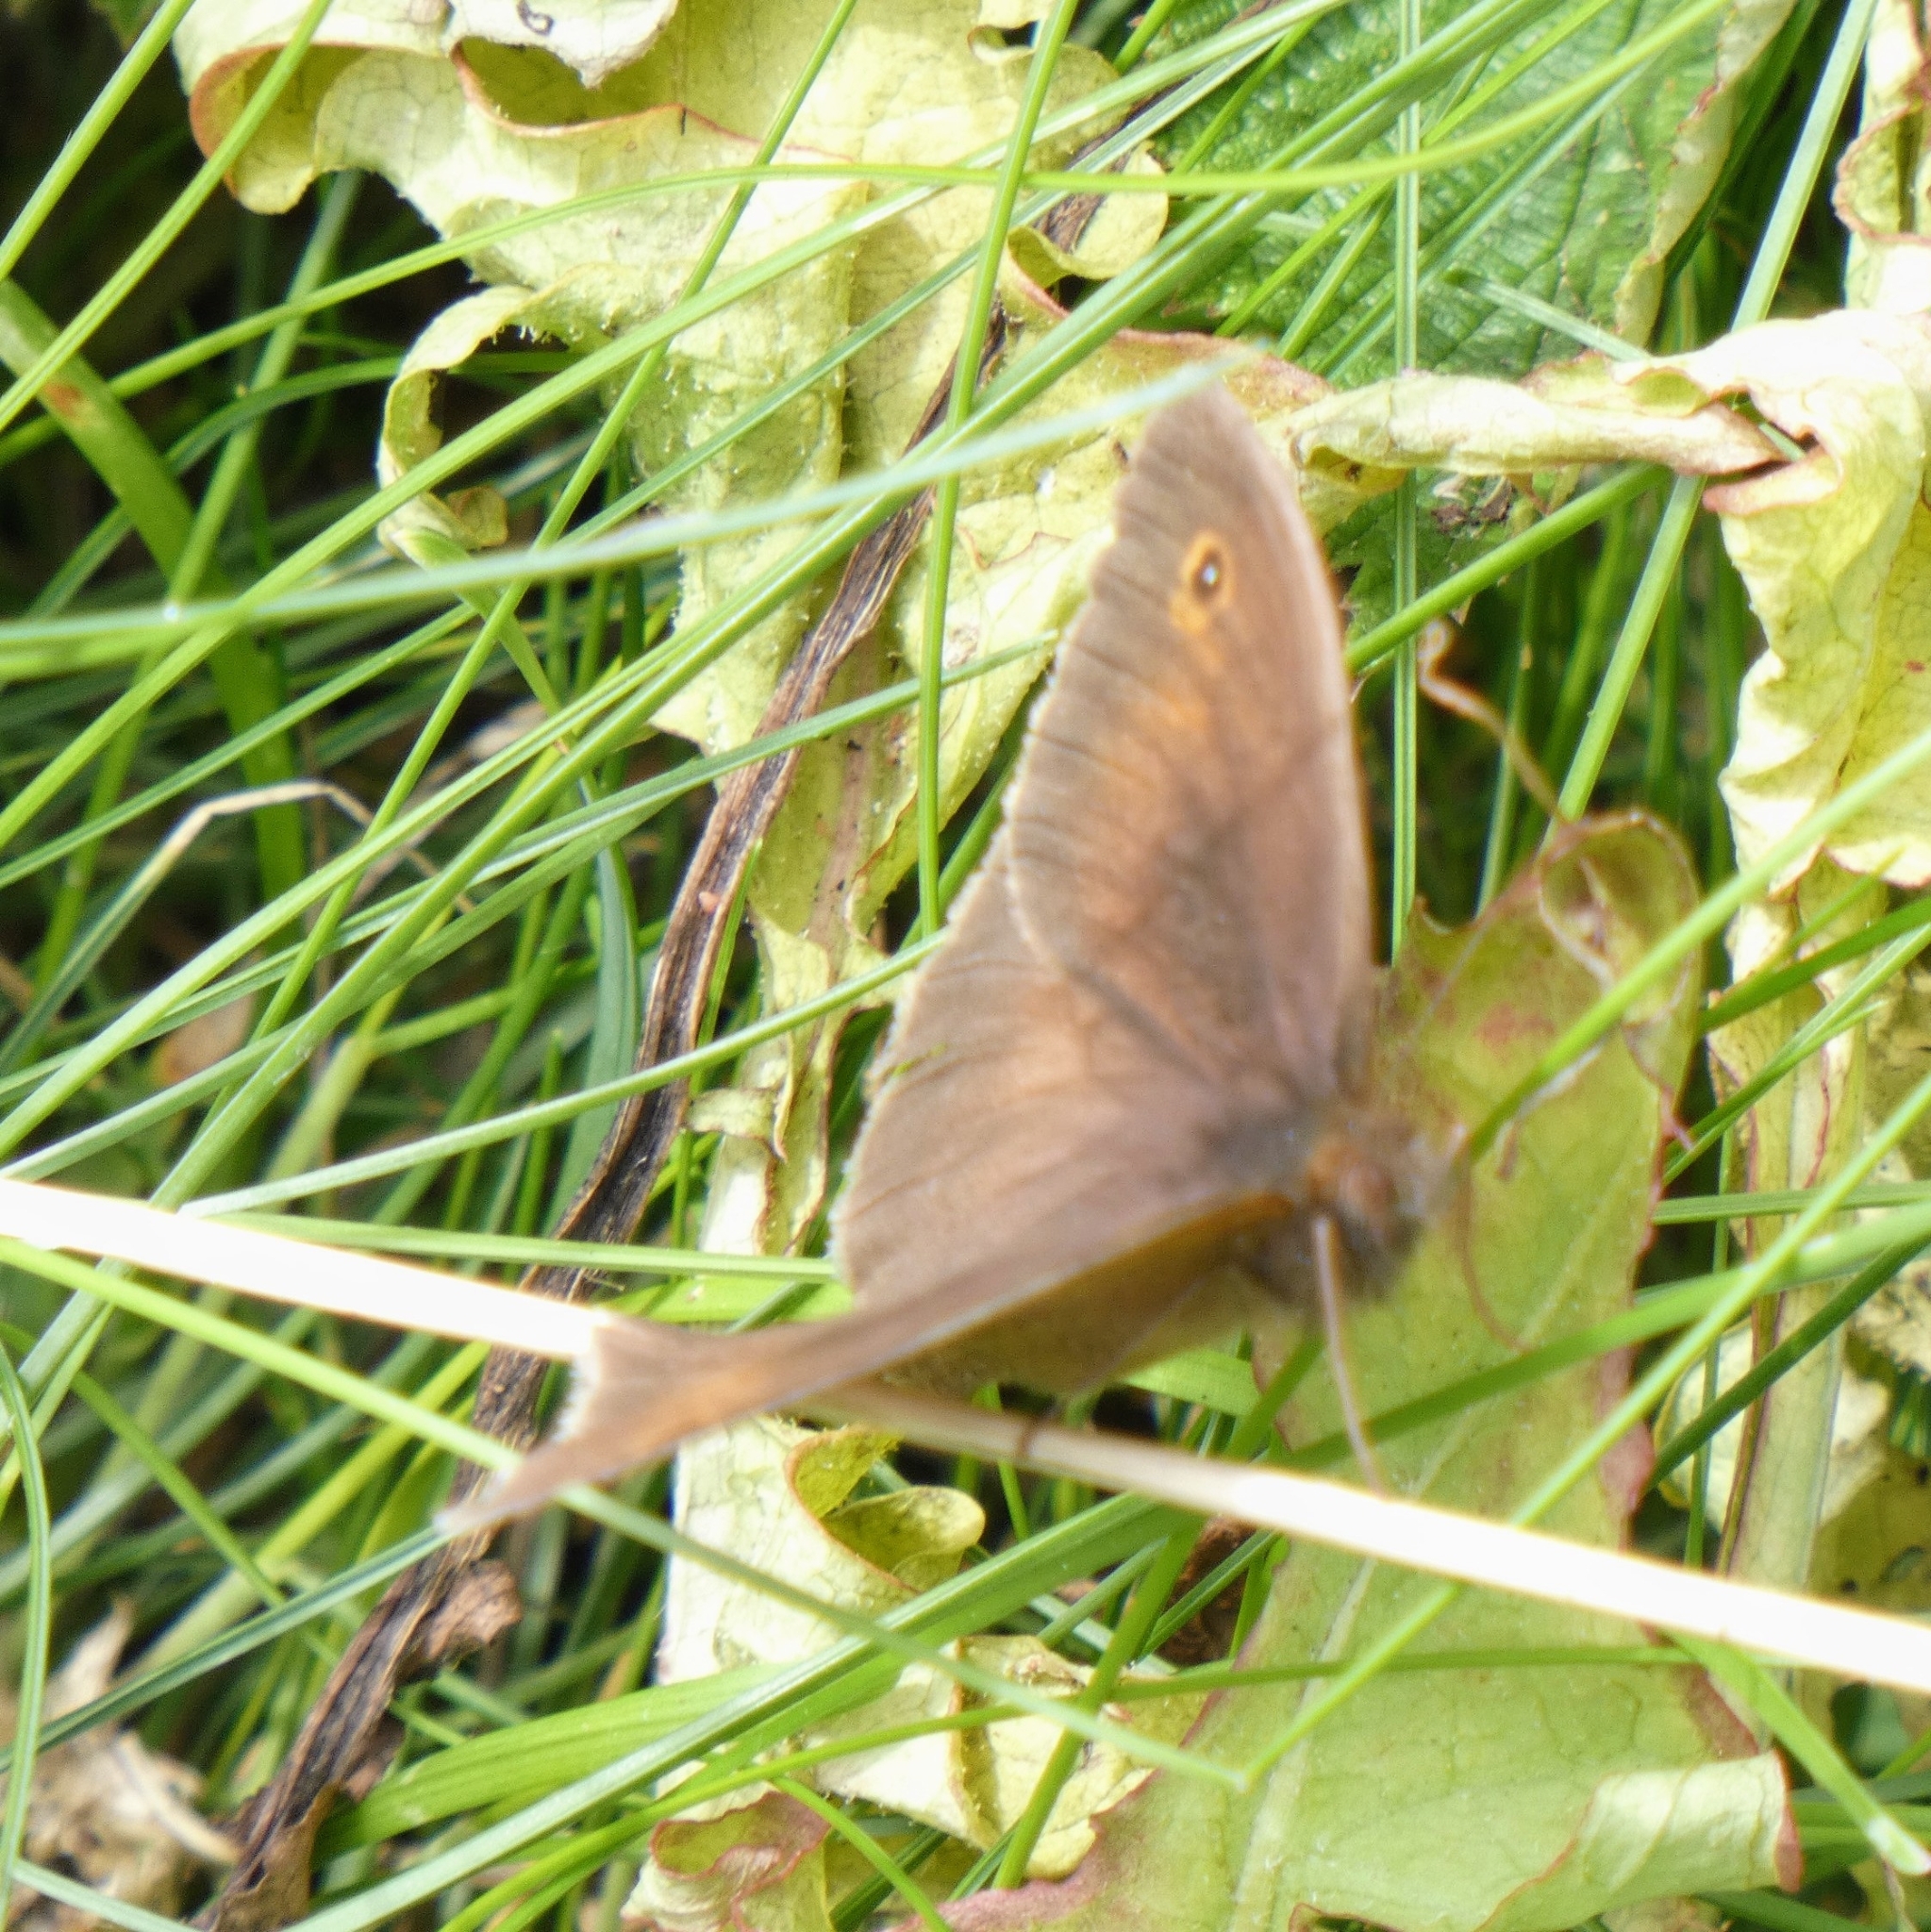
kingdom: Animalia
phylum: Arthropoda
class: Insecta
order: Lepidoptera
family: Nymphalidae
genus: Maniola
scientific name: Maniola jurtina
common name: Meadow brown
